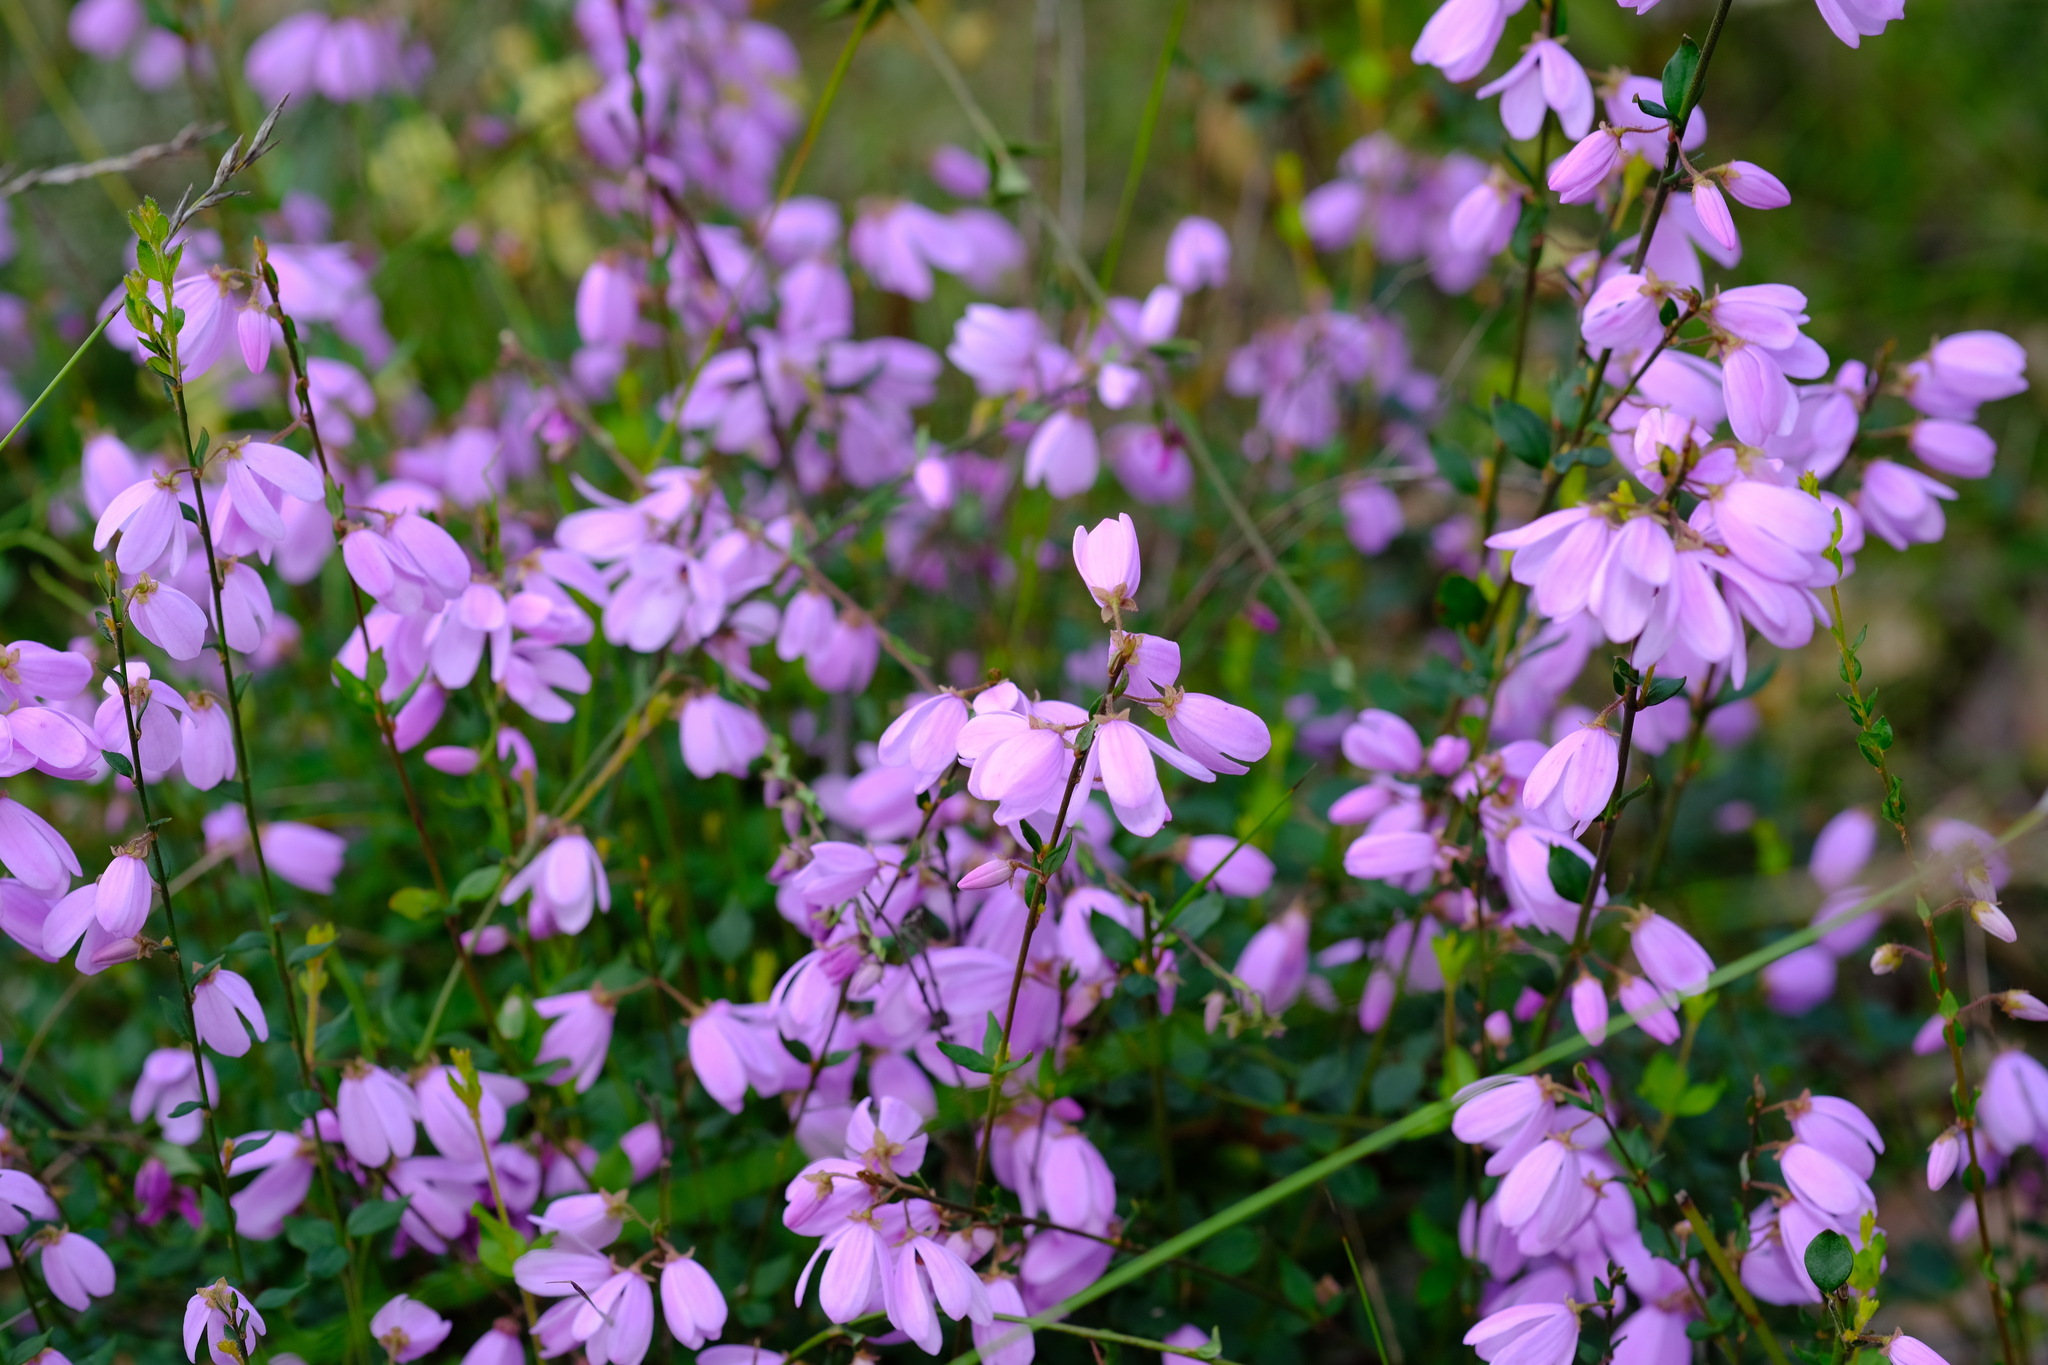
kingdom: Plantae
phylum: Tracheophyta
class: Magnoliopsida
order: Oxalidales
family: Elaeocarpaceae
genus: Tetratheca
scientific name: Tetratheca ciliata
